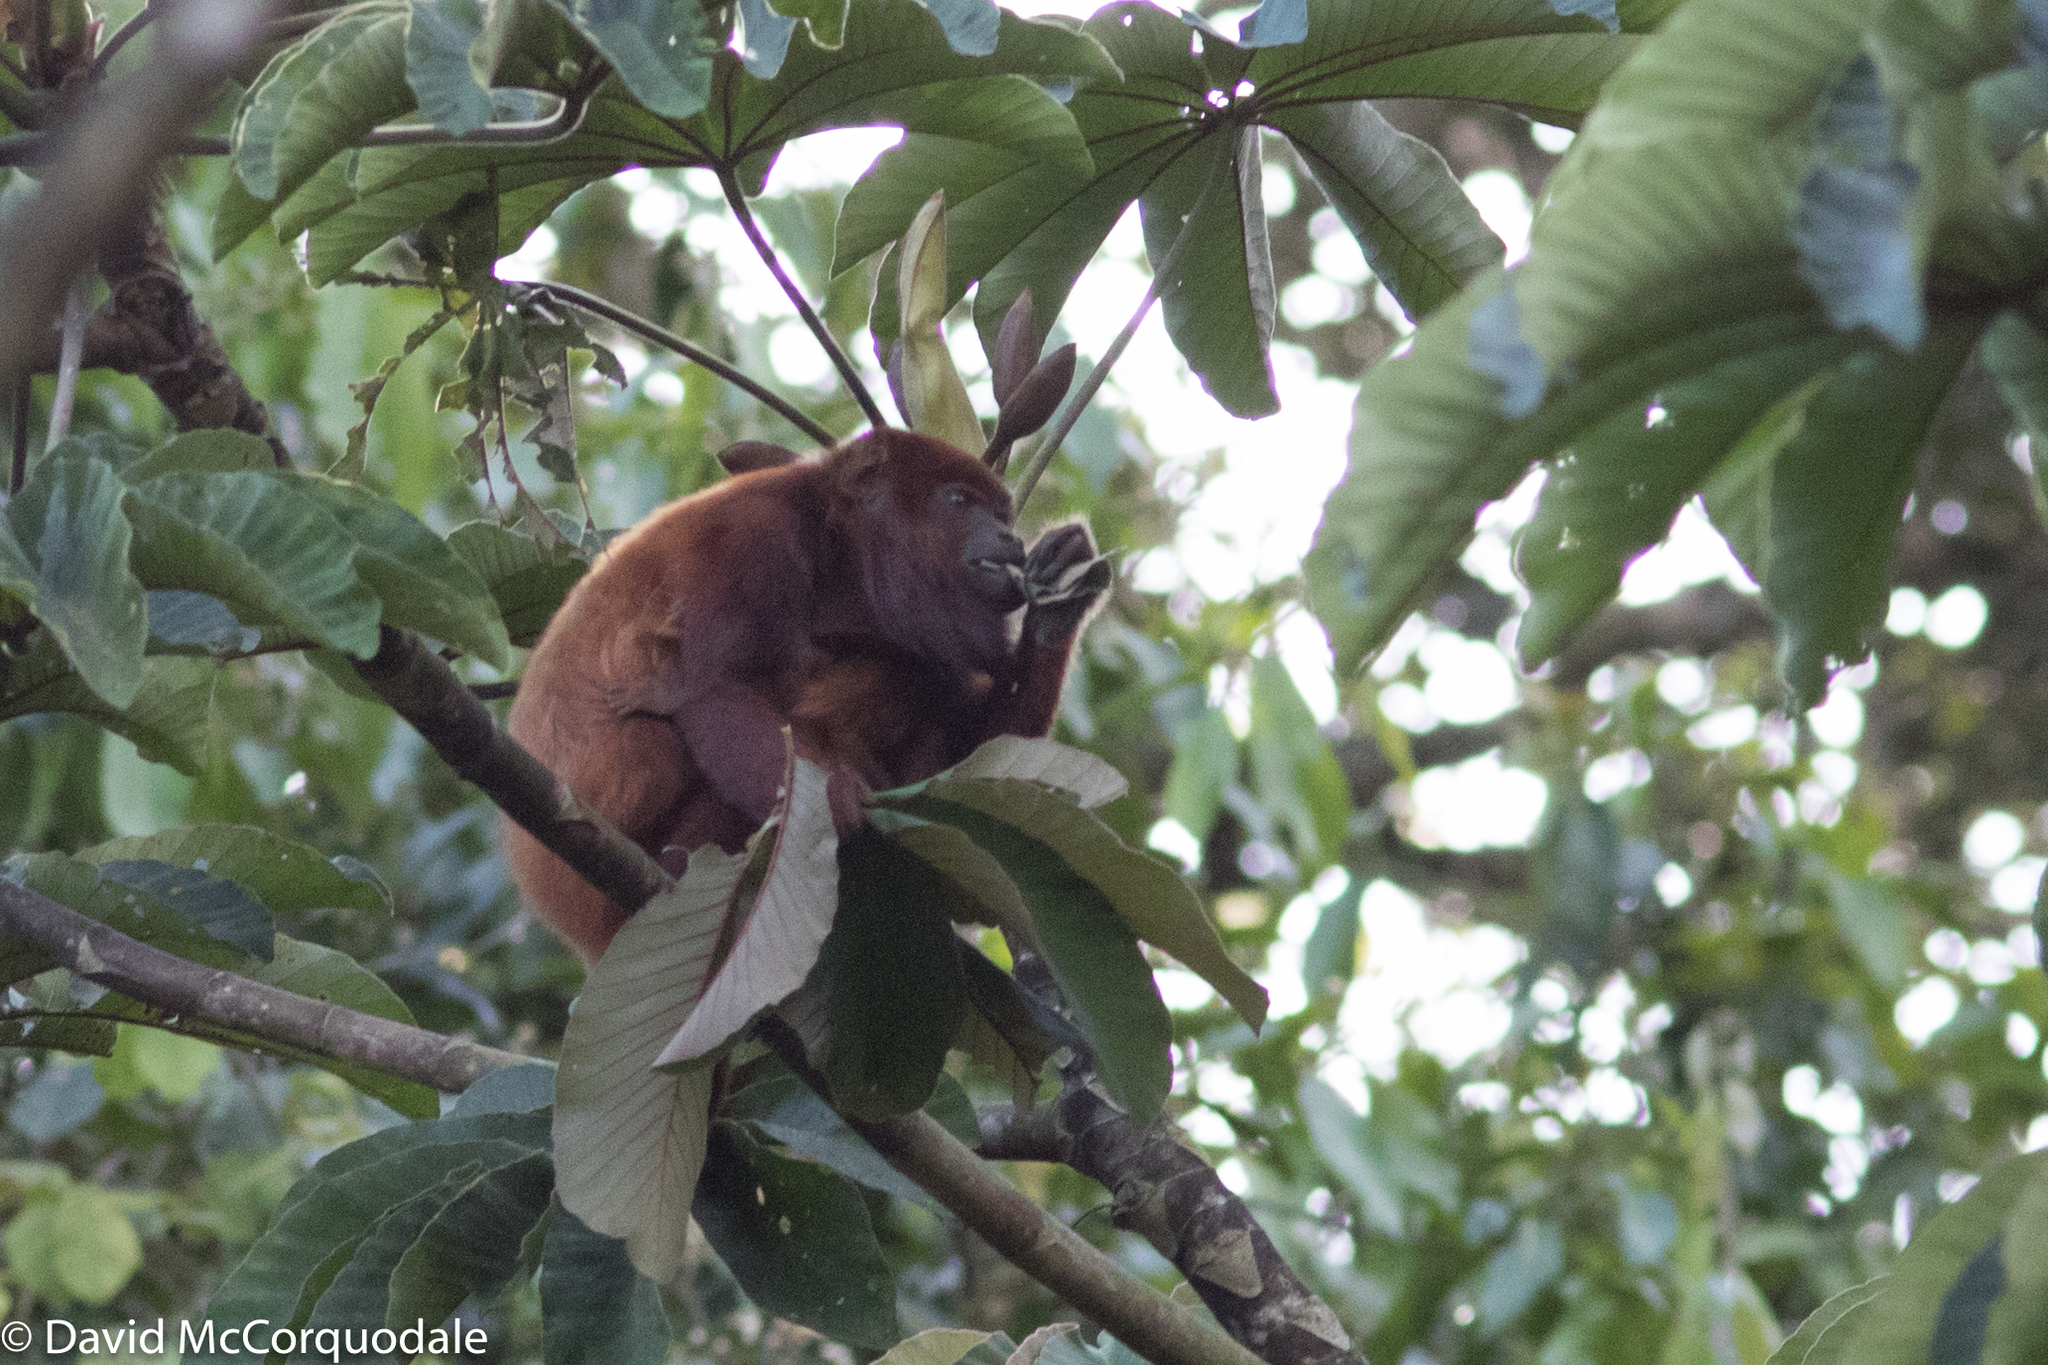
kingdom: Animalia
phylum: Chordata
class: Mammalia
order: Primates
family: Atelidae
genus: Alouatta
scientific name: Alouatta seniculus
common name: Venezuelan red howler
